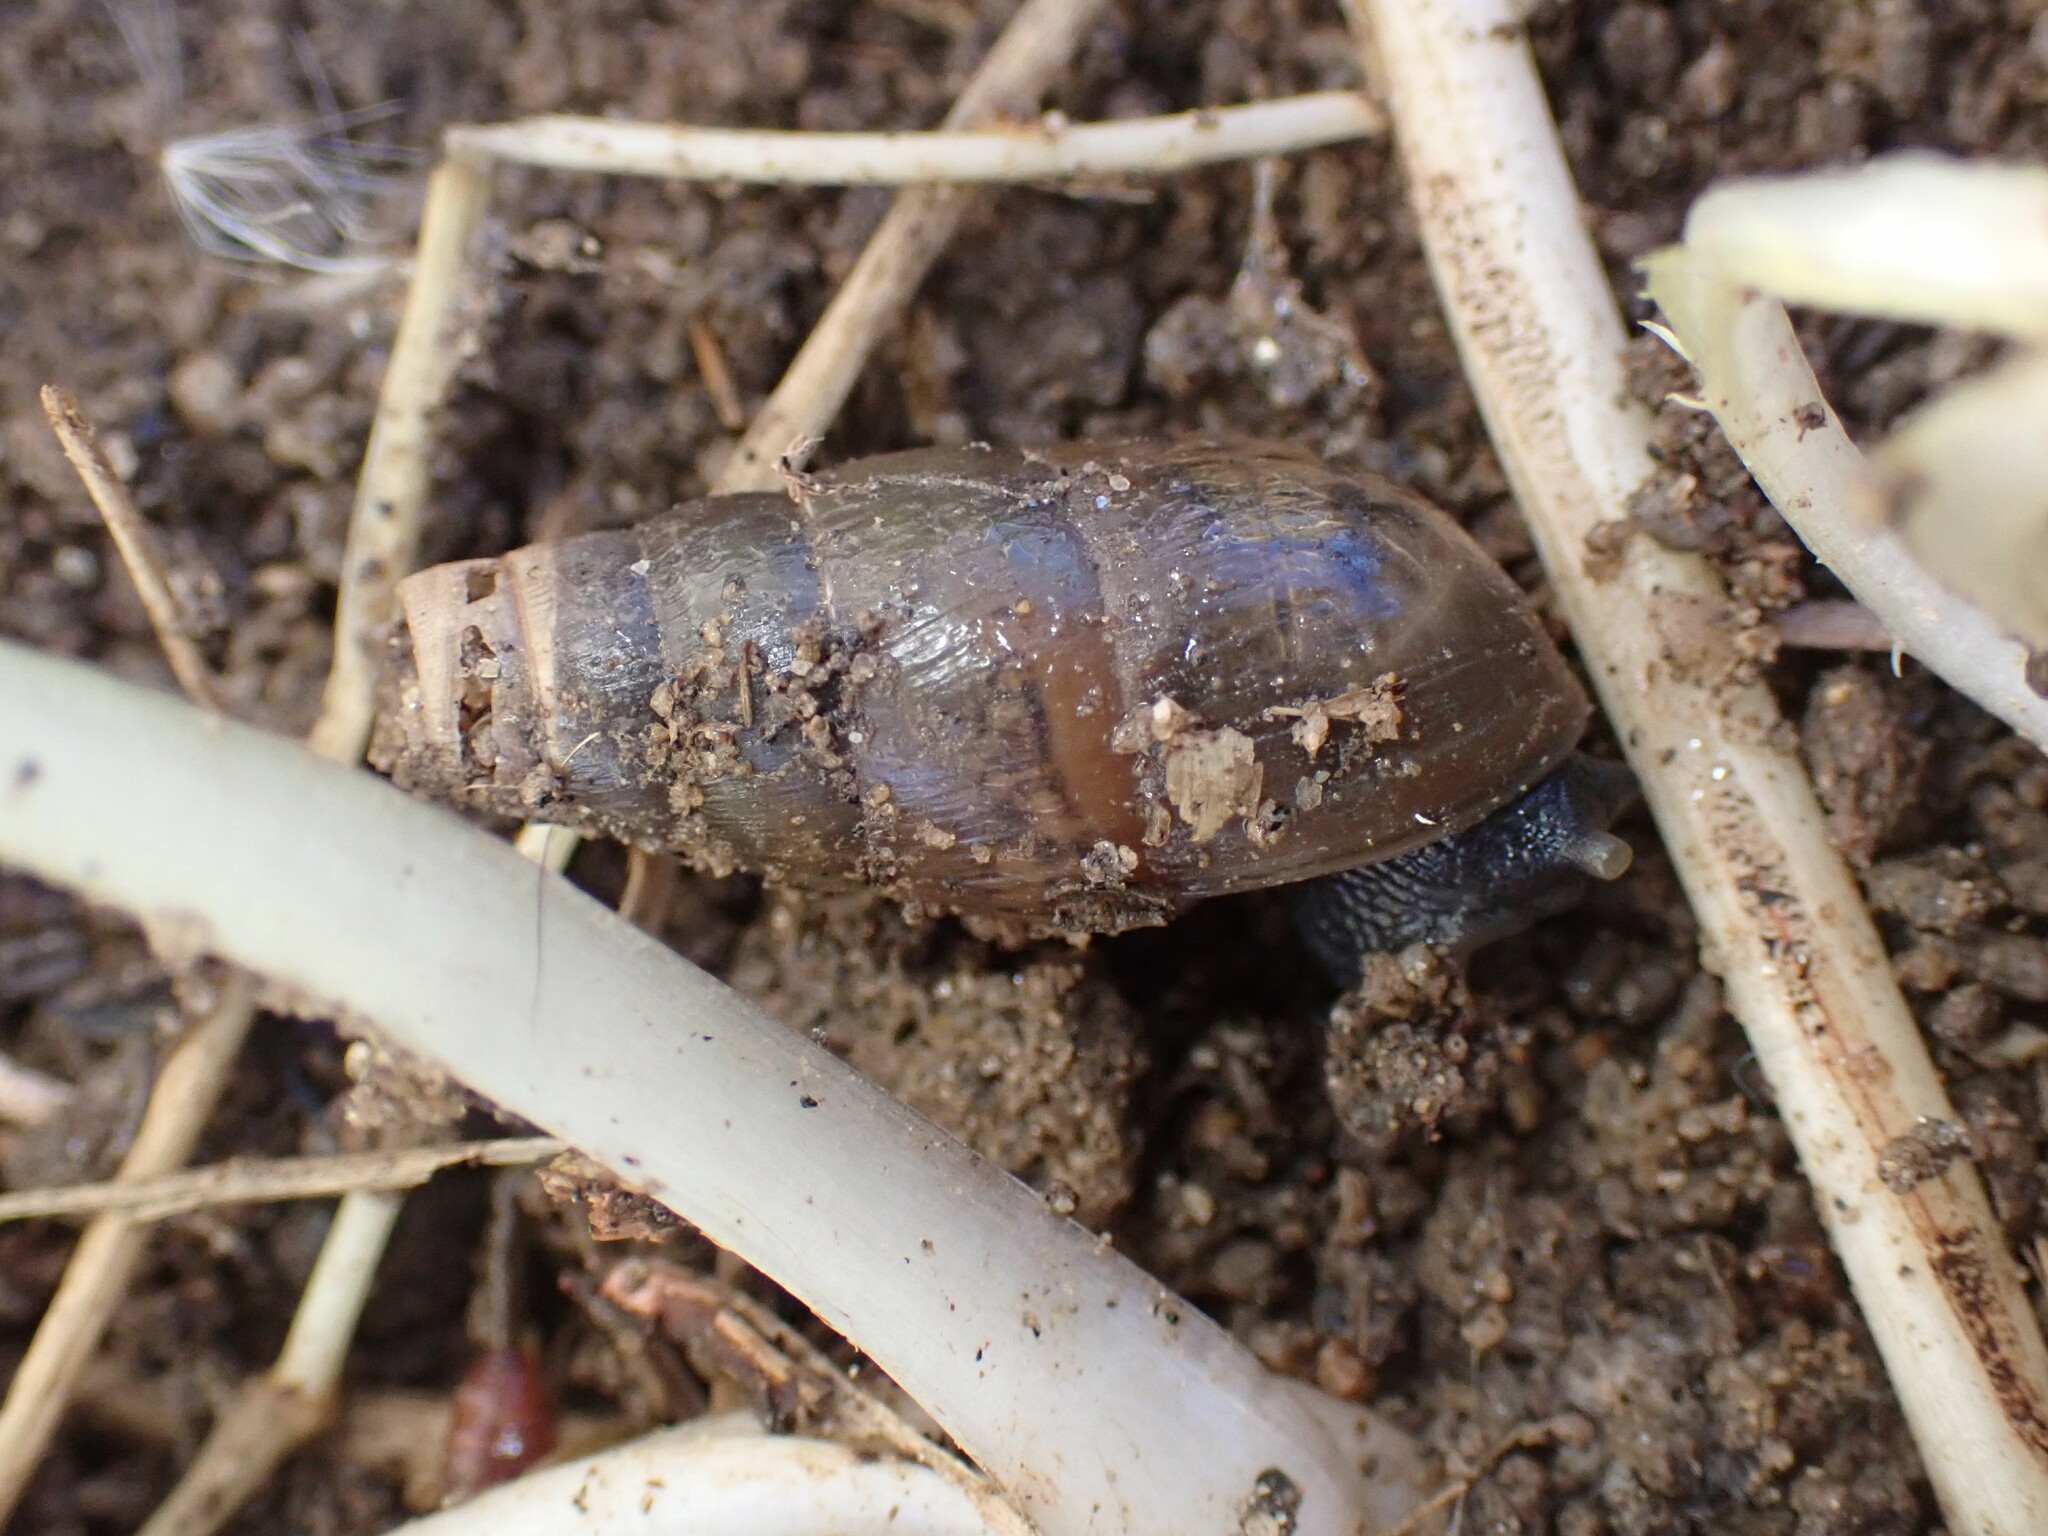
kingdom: Animalia
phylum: Mollusca
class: Gastropoda
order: Stylommatophora
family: Achatinidae
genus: Rumina
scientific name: Rumina decollata
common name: Decollate snail
